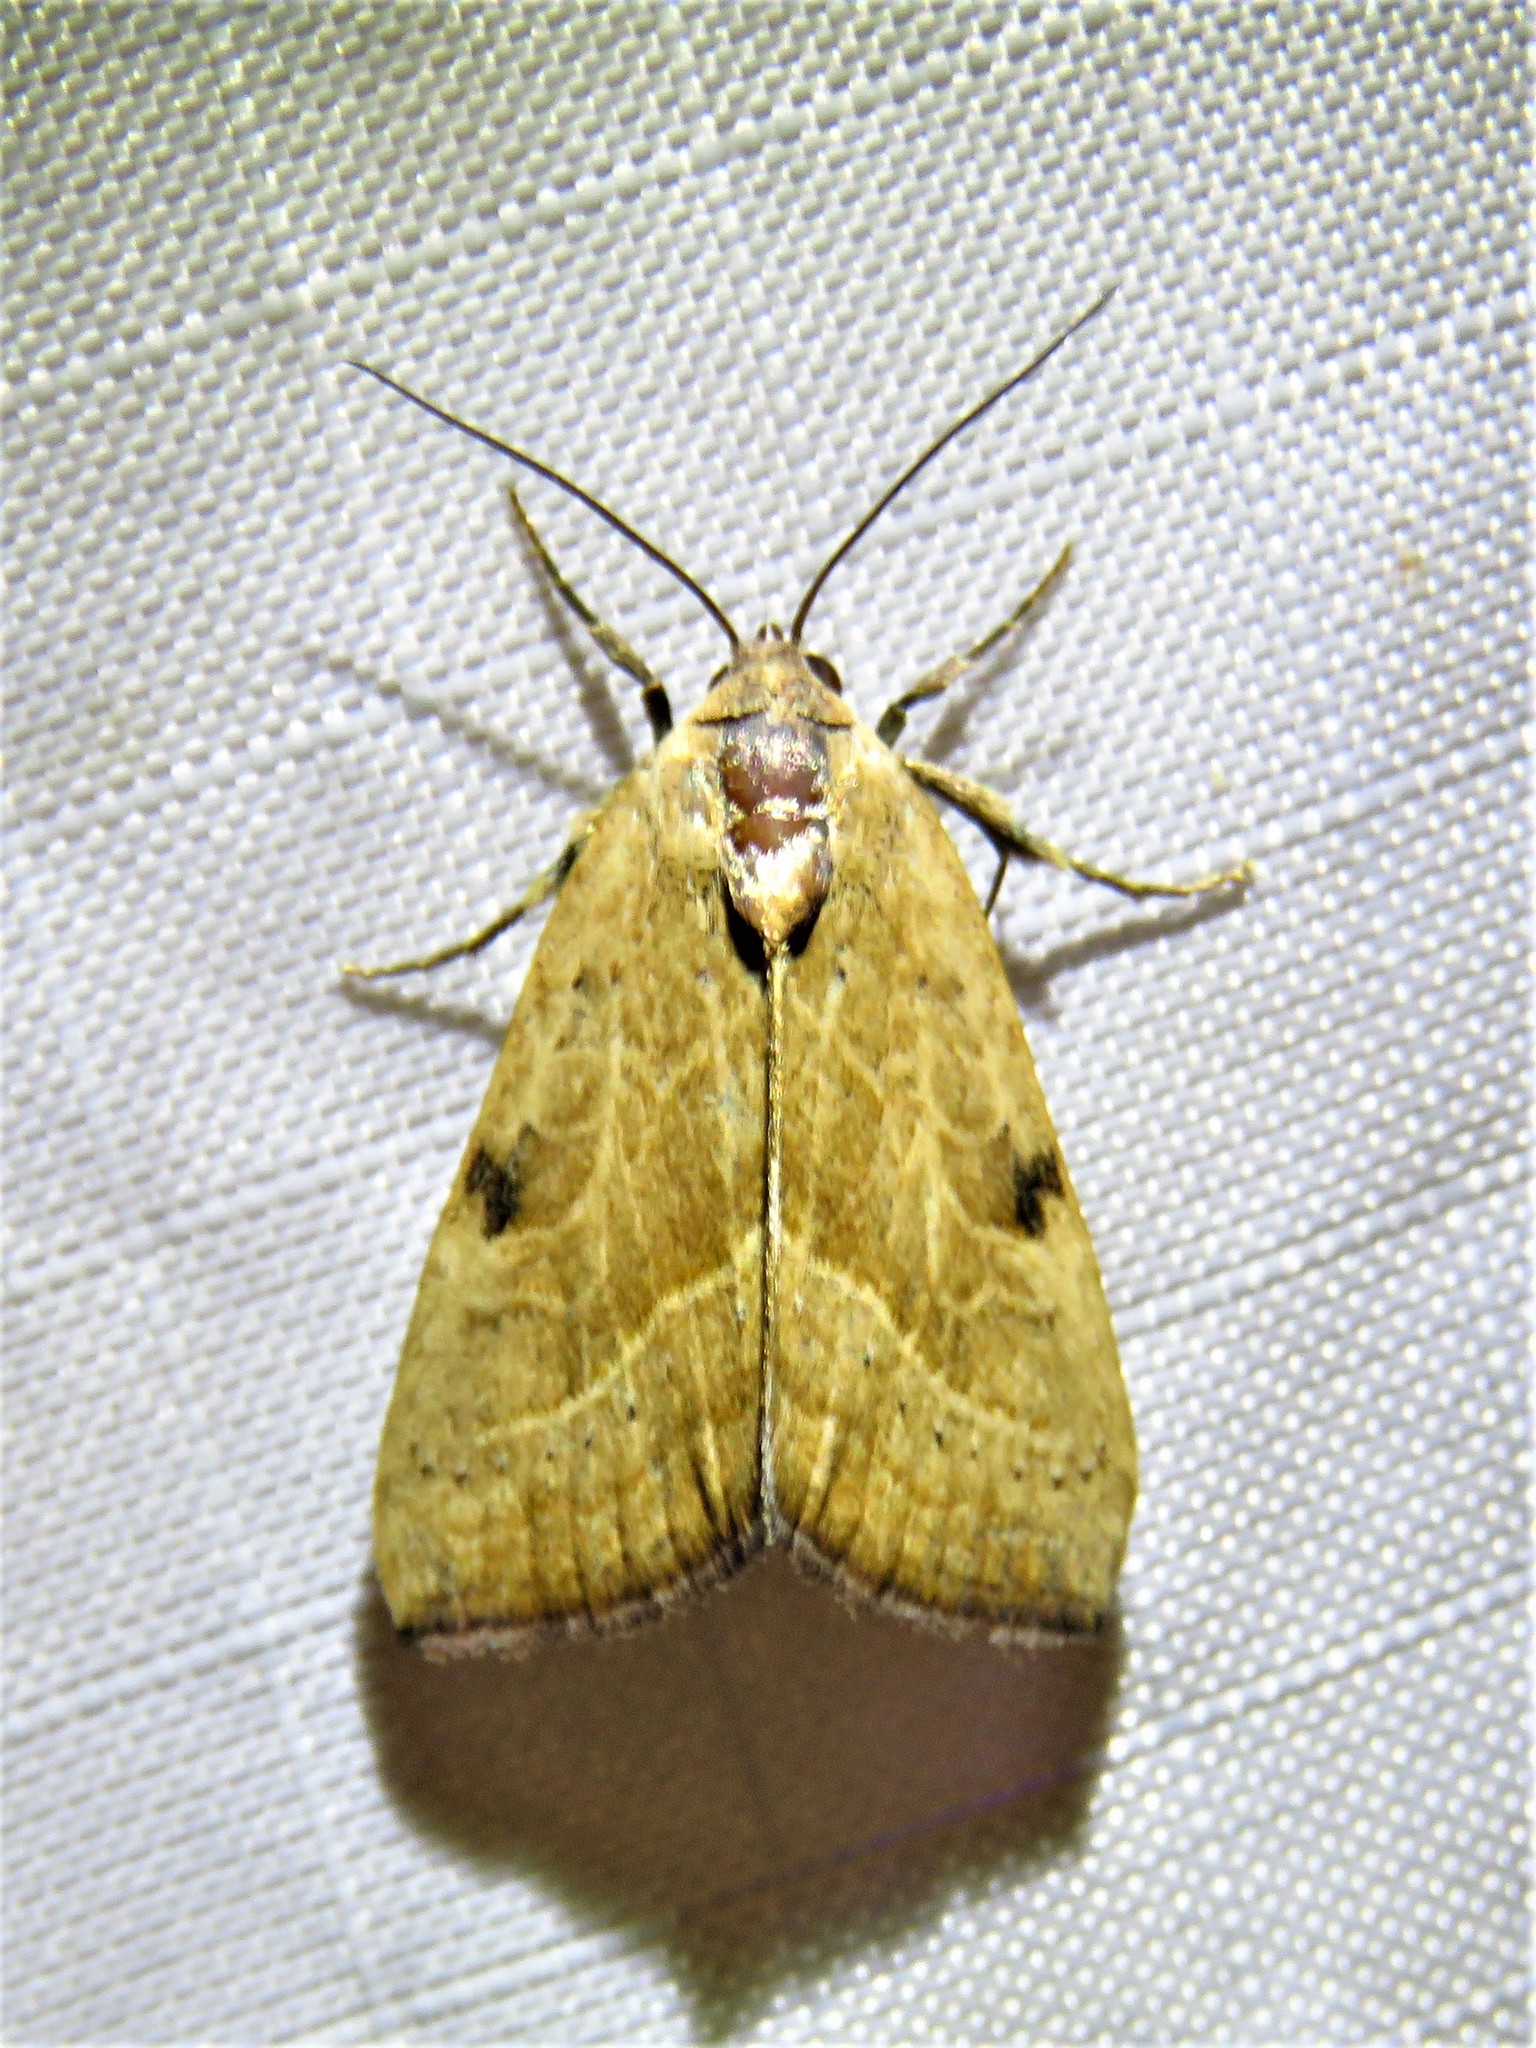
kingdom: Animalia
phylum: Arthropoda
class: Insecta
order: Lepidoptera
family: Noctuidae
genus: Galgula
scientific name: Galgula partita
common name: Wedgeling
